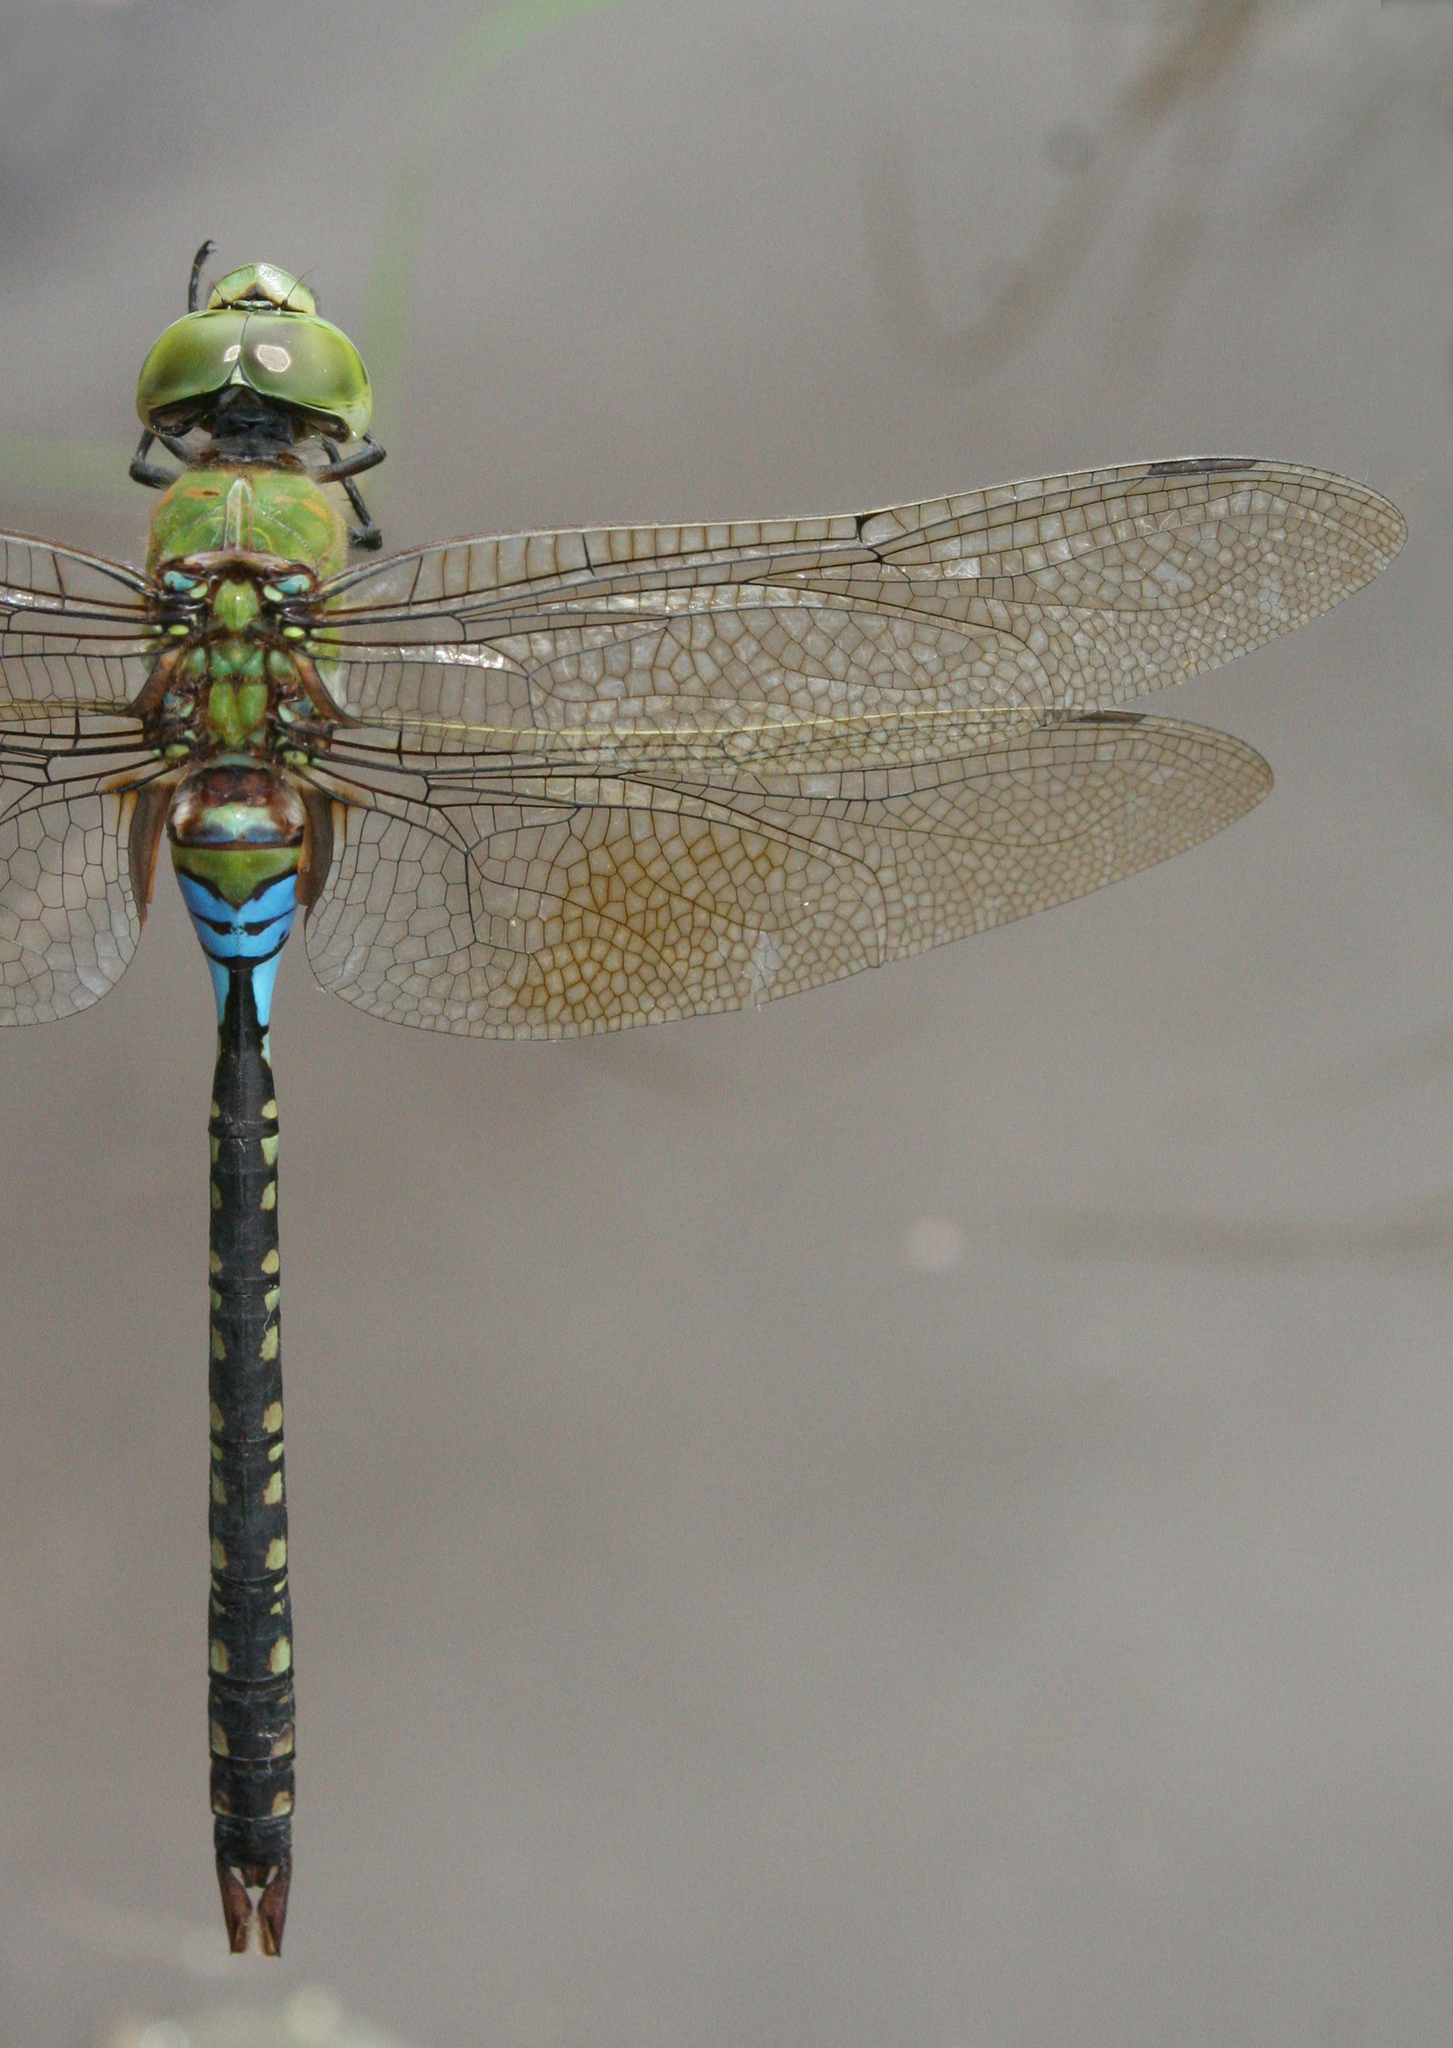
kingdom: Animalia
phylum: Arthropoda
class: Insecta
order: Odonata
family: Aeshnidae
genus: Anax
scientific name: Anax guttatus
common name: Emperor
